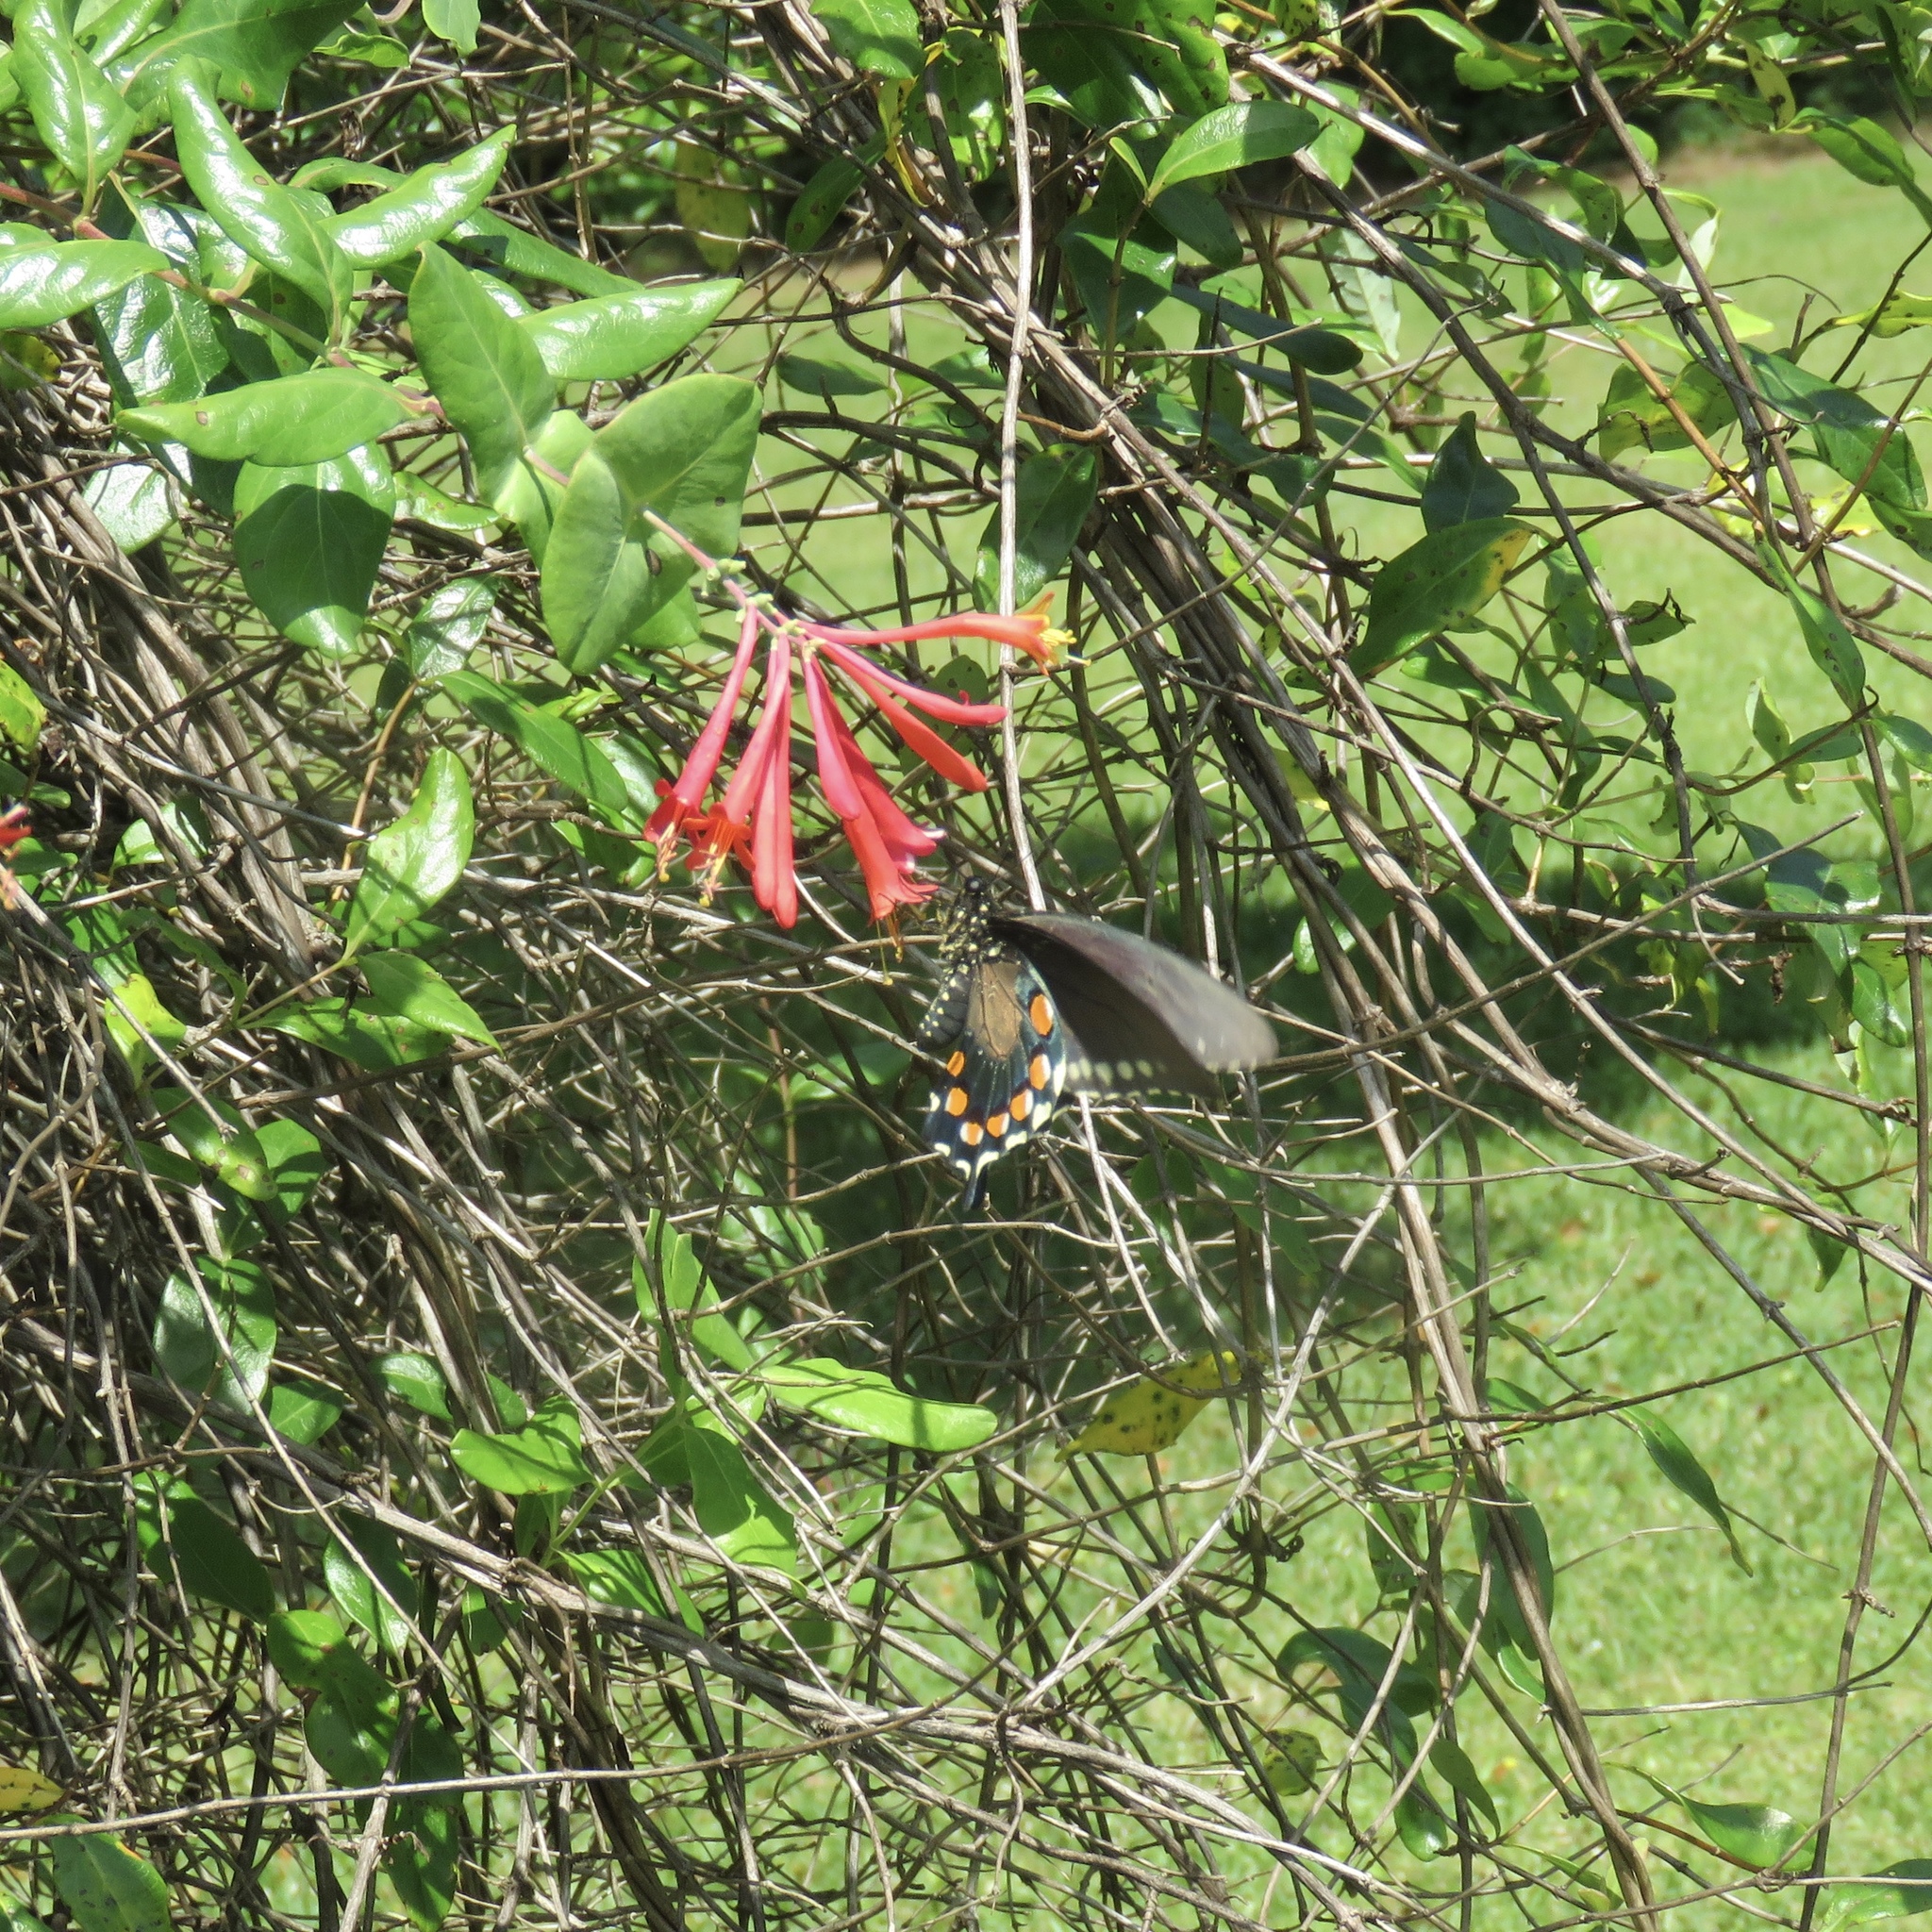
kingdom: Animalia
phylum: Arthropoda
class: Insecta
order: Lepidoptera
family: Papilionidae
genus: Battus
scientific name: Battus philenor
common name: Pipevine swallowtail
